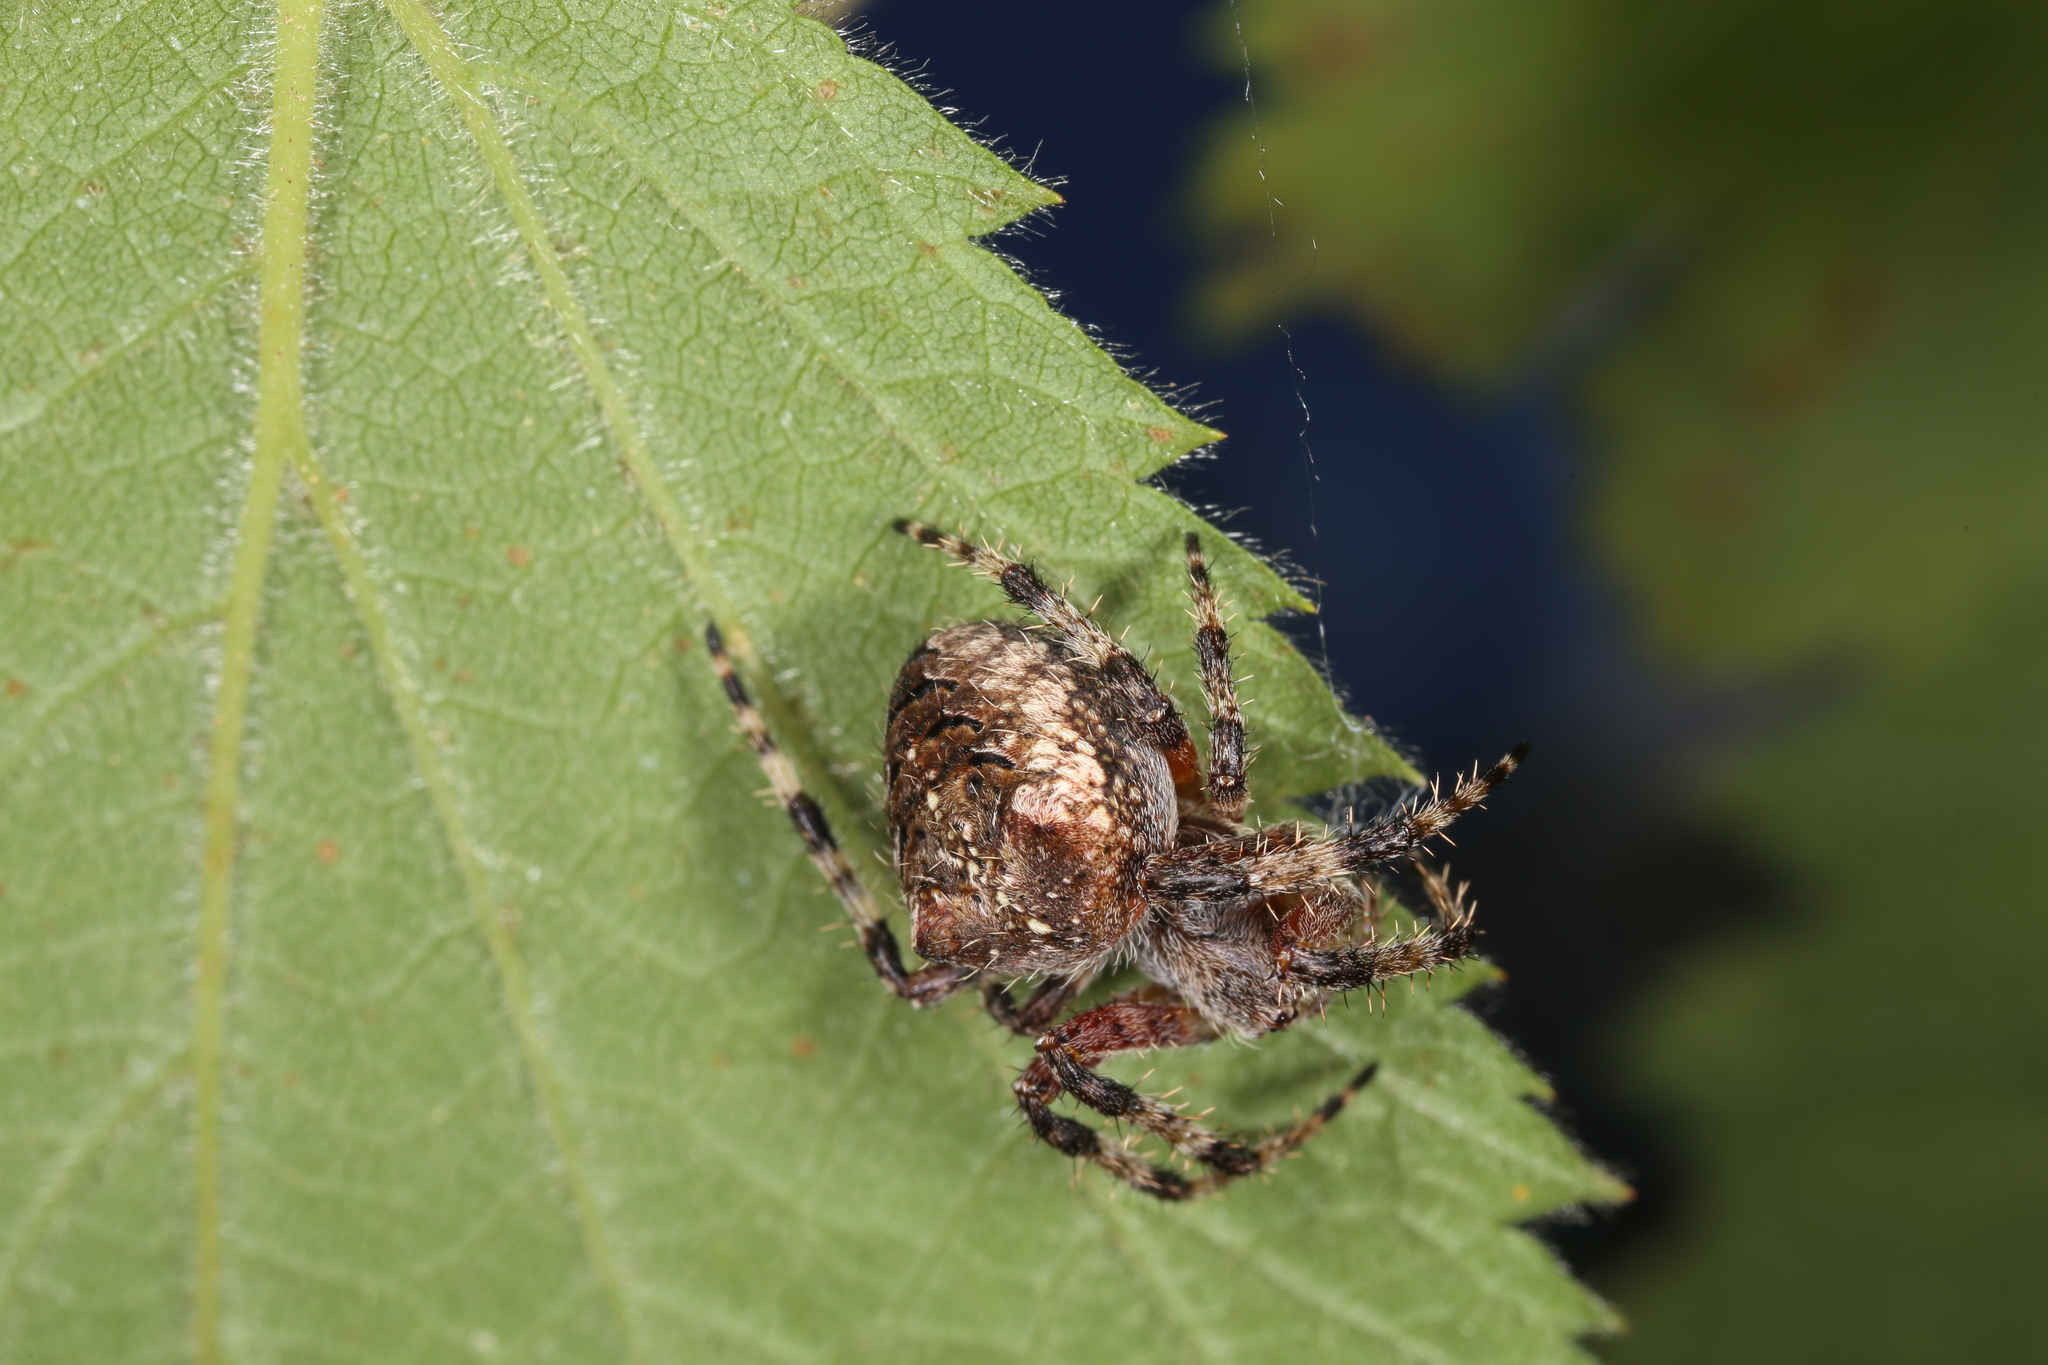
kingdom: Animalia
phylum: Arthropoda
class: Arachnida
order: Araneae
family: Araneidae
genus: Araneus
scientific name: Araneus saevus
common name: Fierce orbweaver
